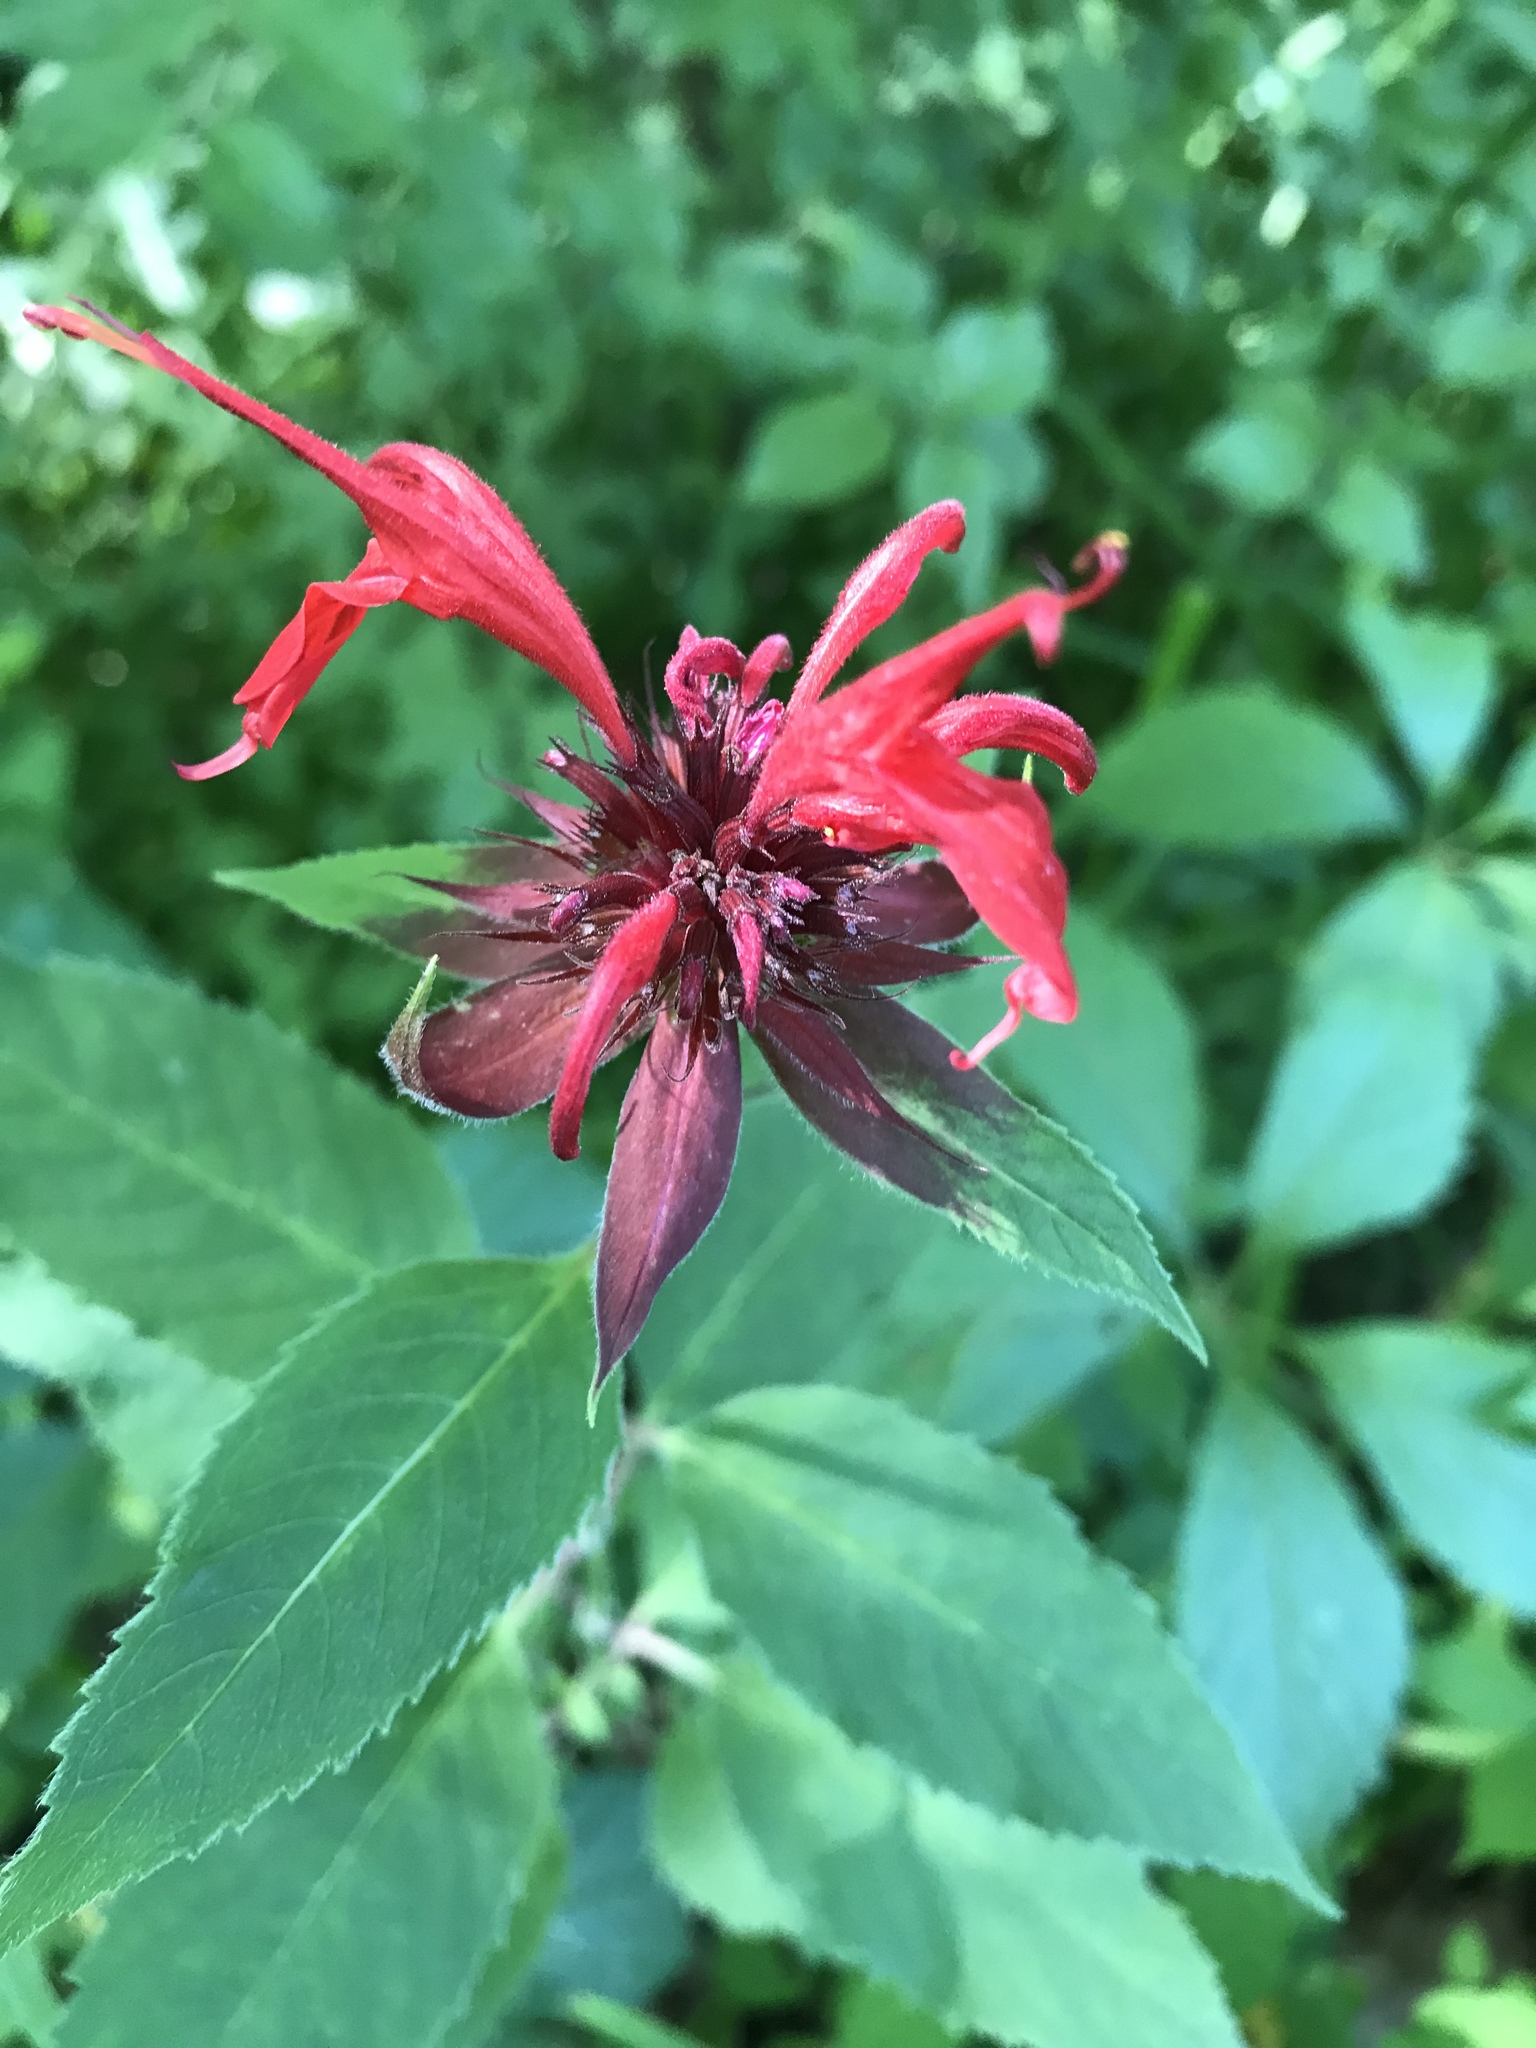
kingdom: Plantae
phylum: Tracheophyta
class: Magnoliopsida
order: Lamiales
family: Lamiaceae
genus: Monarda
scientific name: Monarda didyma
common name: Beebalm
